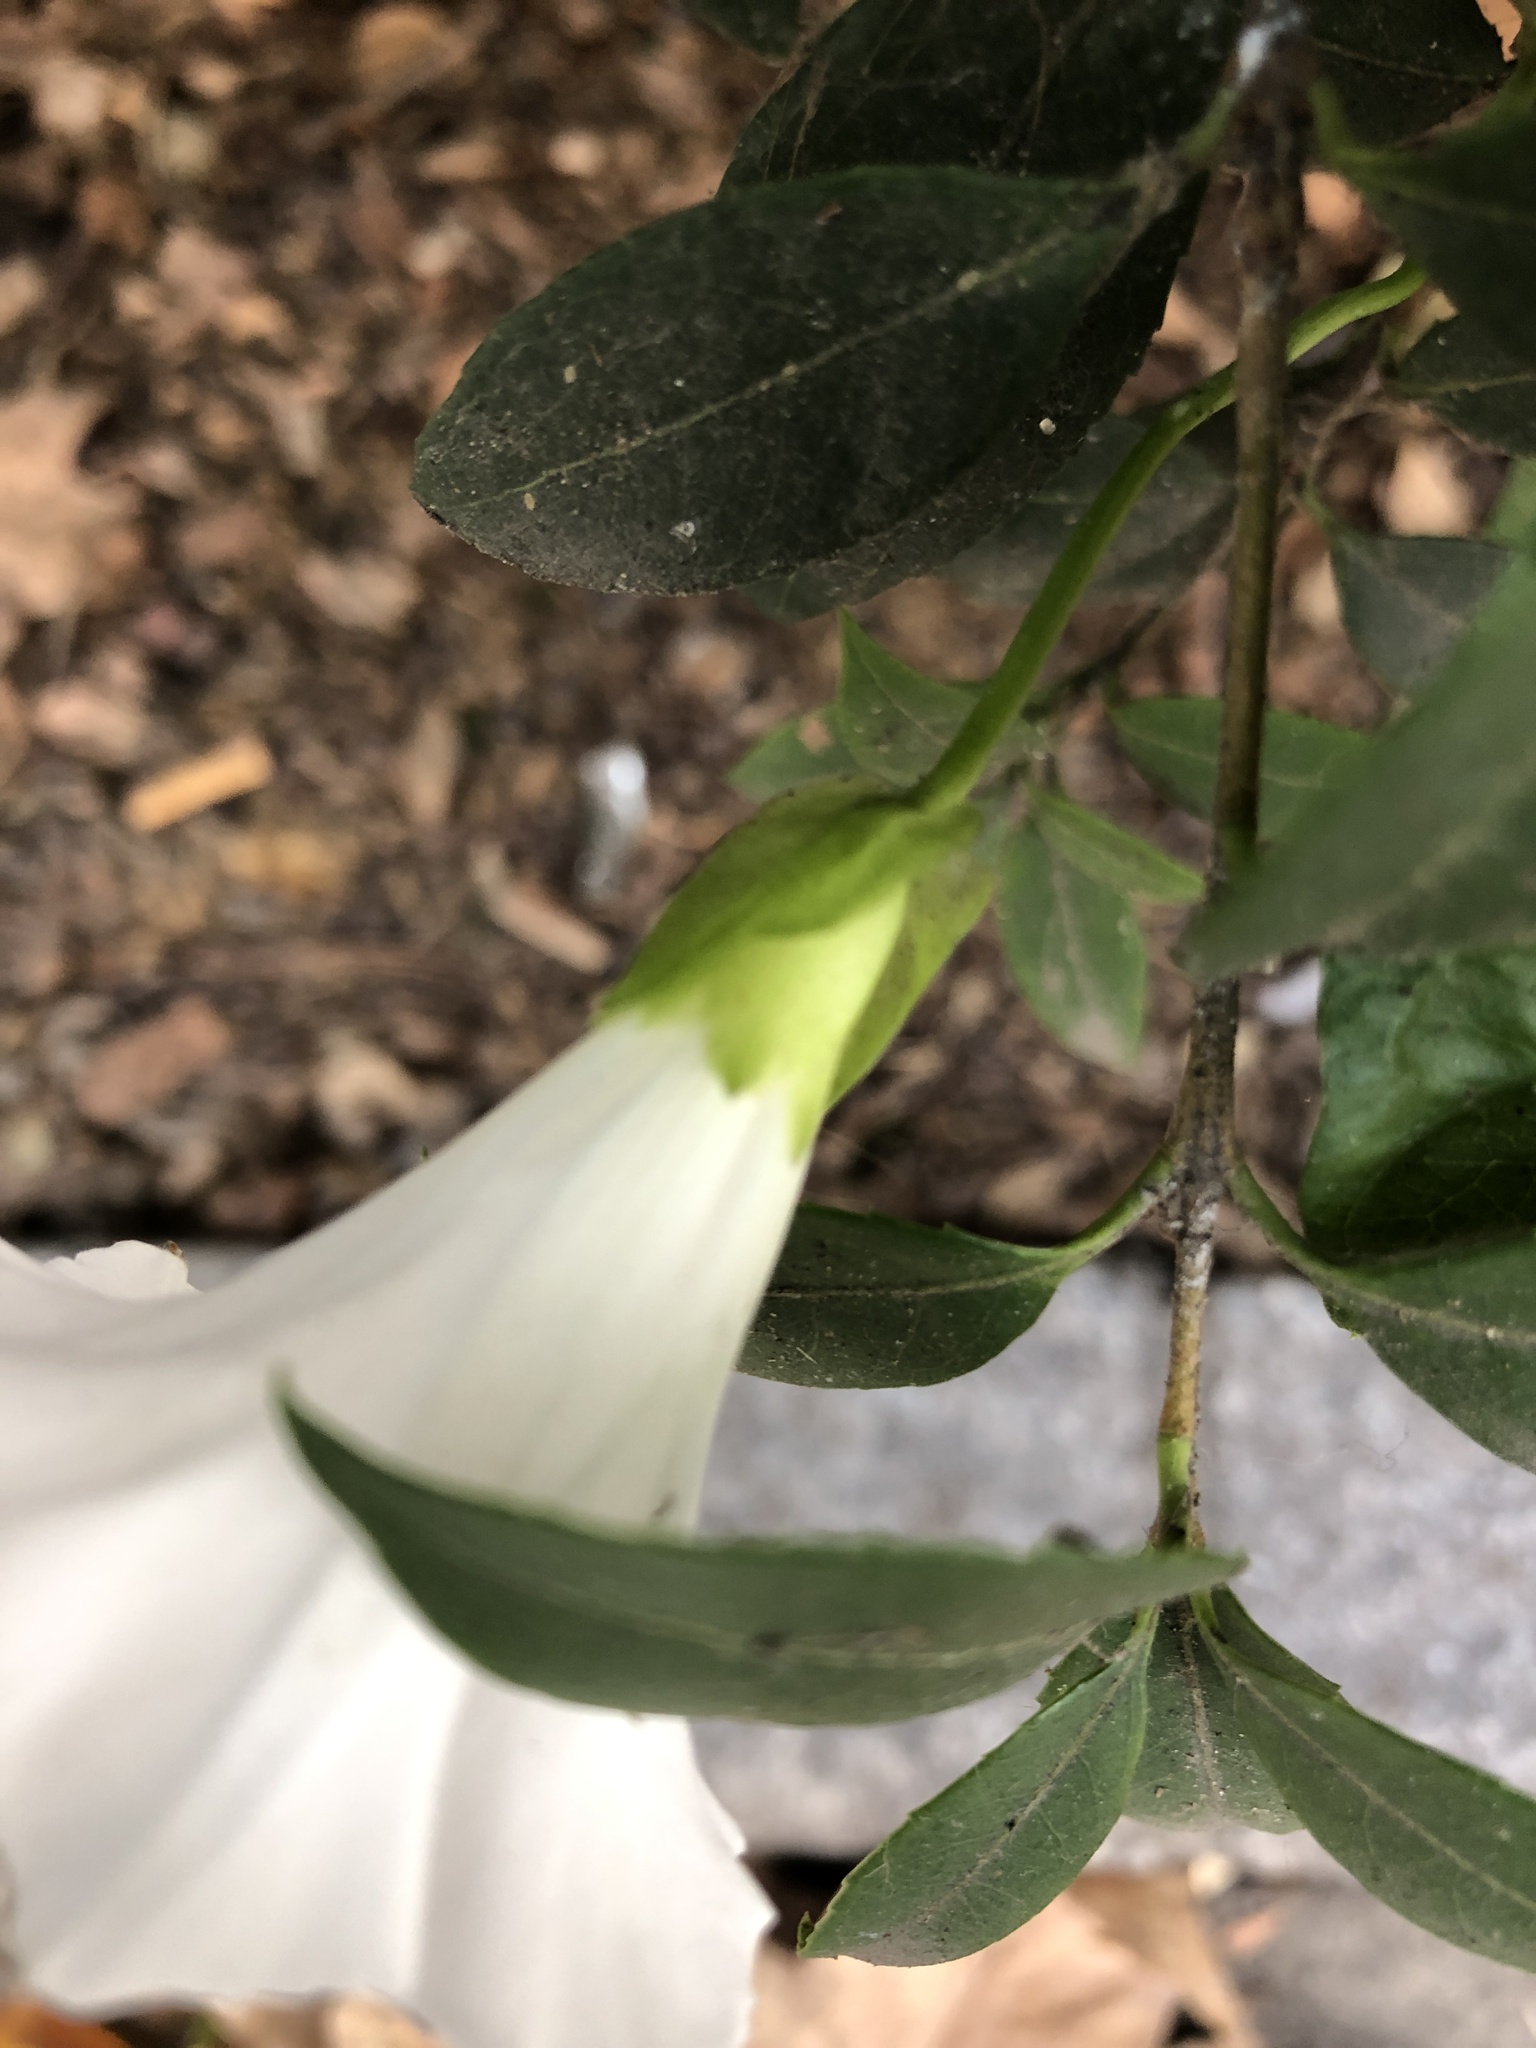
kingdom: Plantae
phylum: Tracheophyta
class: Magnoliopsida
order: Solanales
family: Convolvulaceae
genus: Calystegia
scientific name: Calystegia sepium
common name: Hedge bindweed
